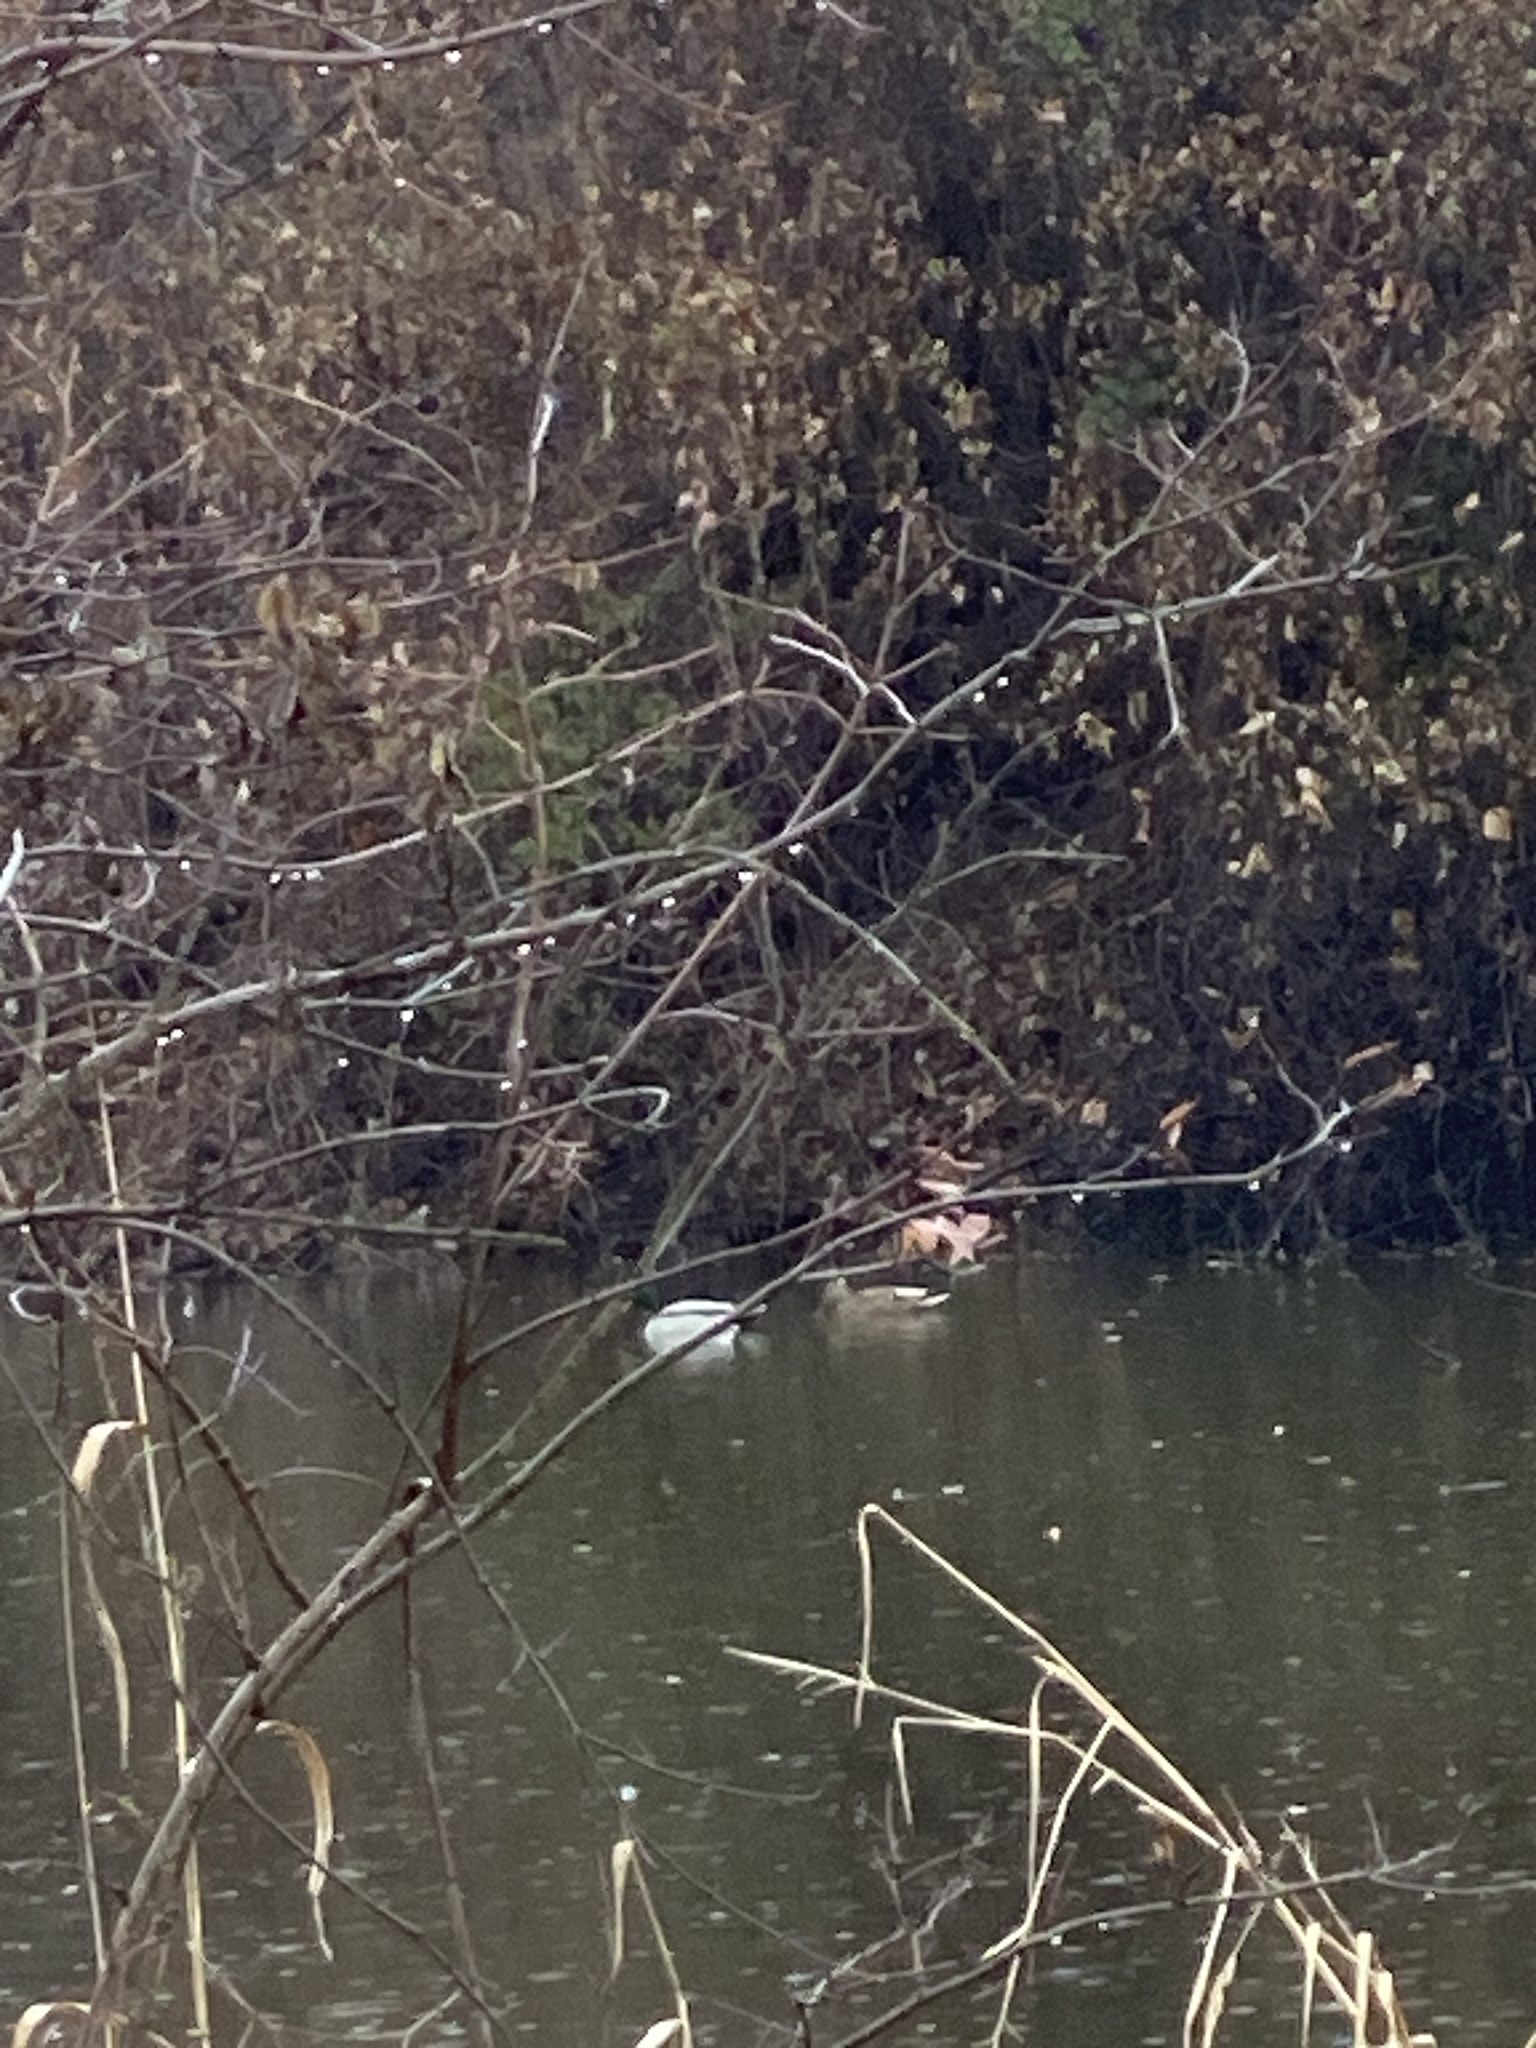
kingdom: Animalia
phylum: Chordata
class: Aves
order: Anseriformes
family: Anatidae
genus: Anas
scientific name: Anas platyrhynchos
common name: Mallard
